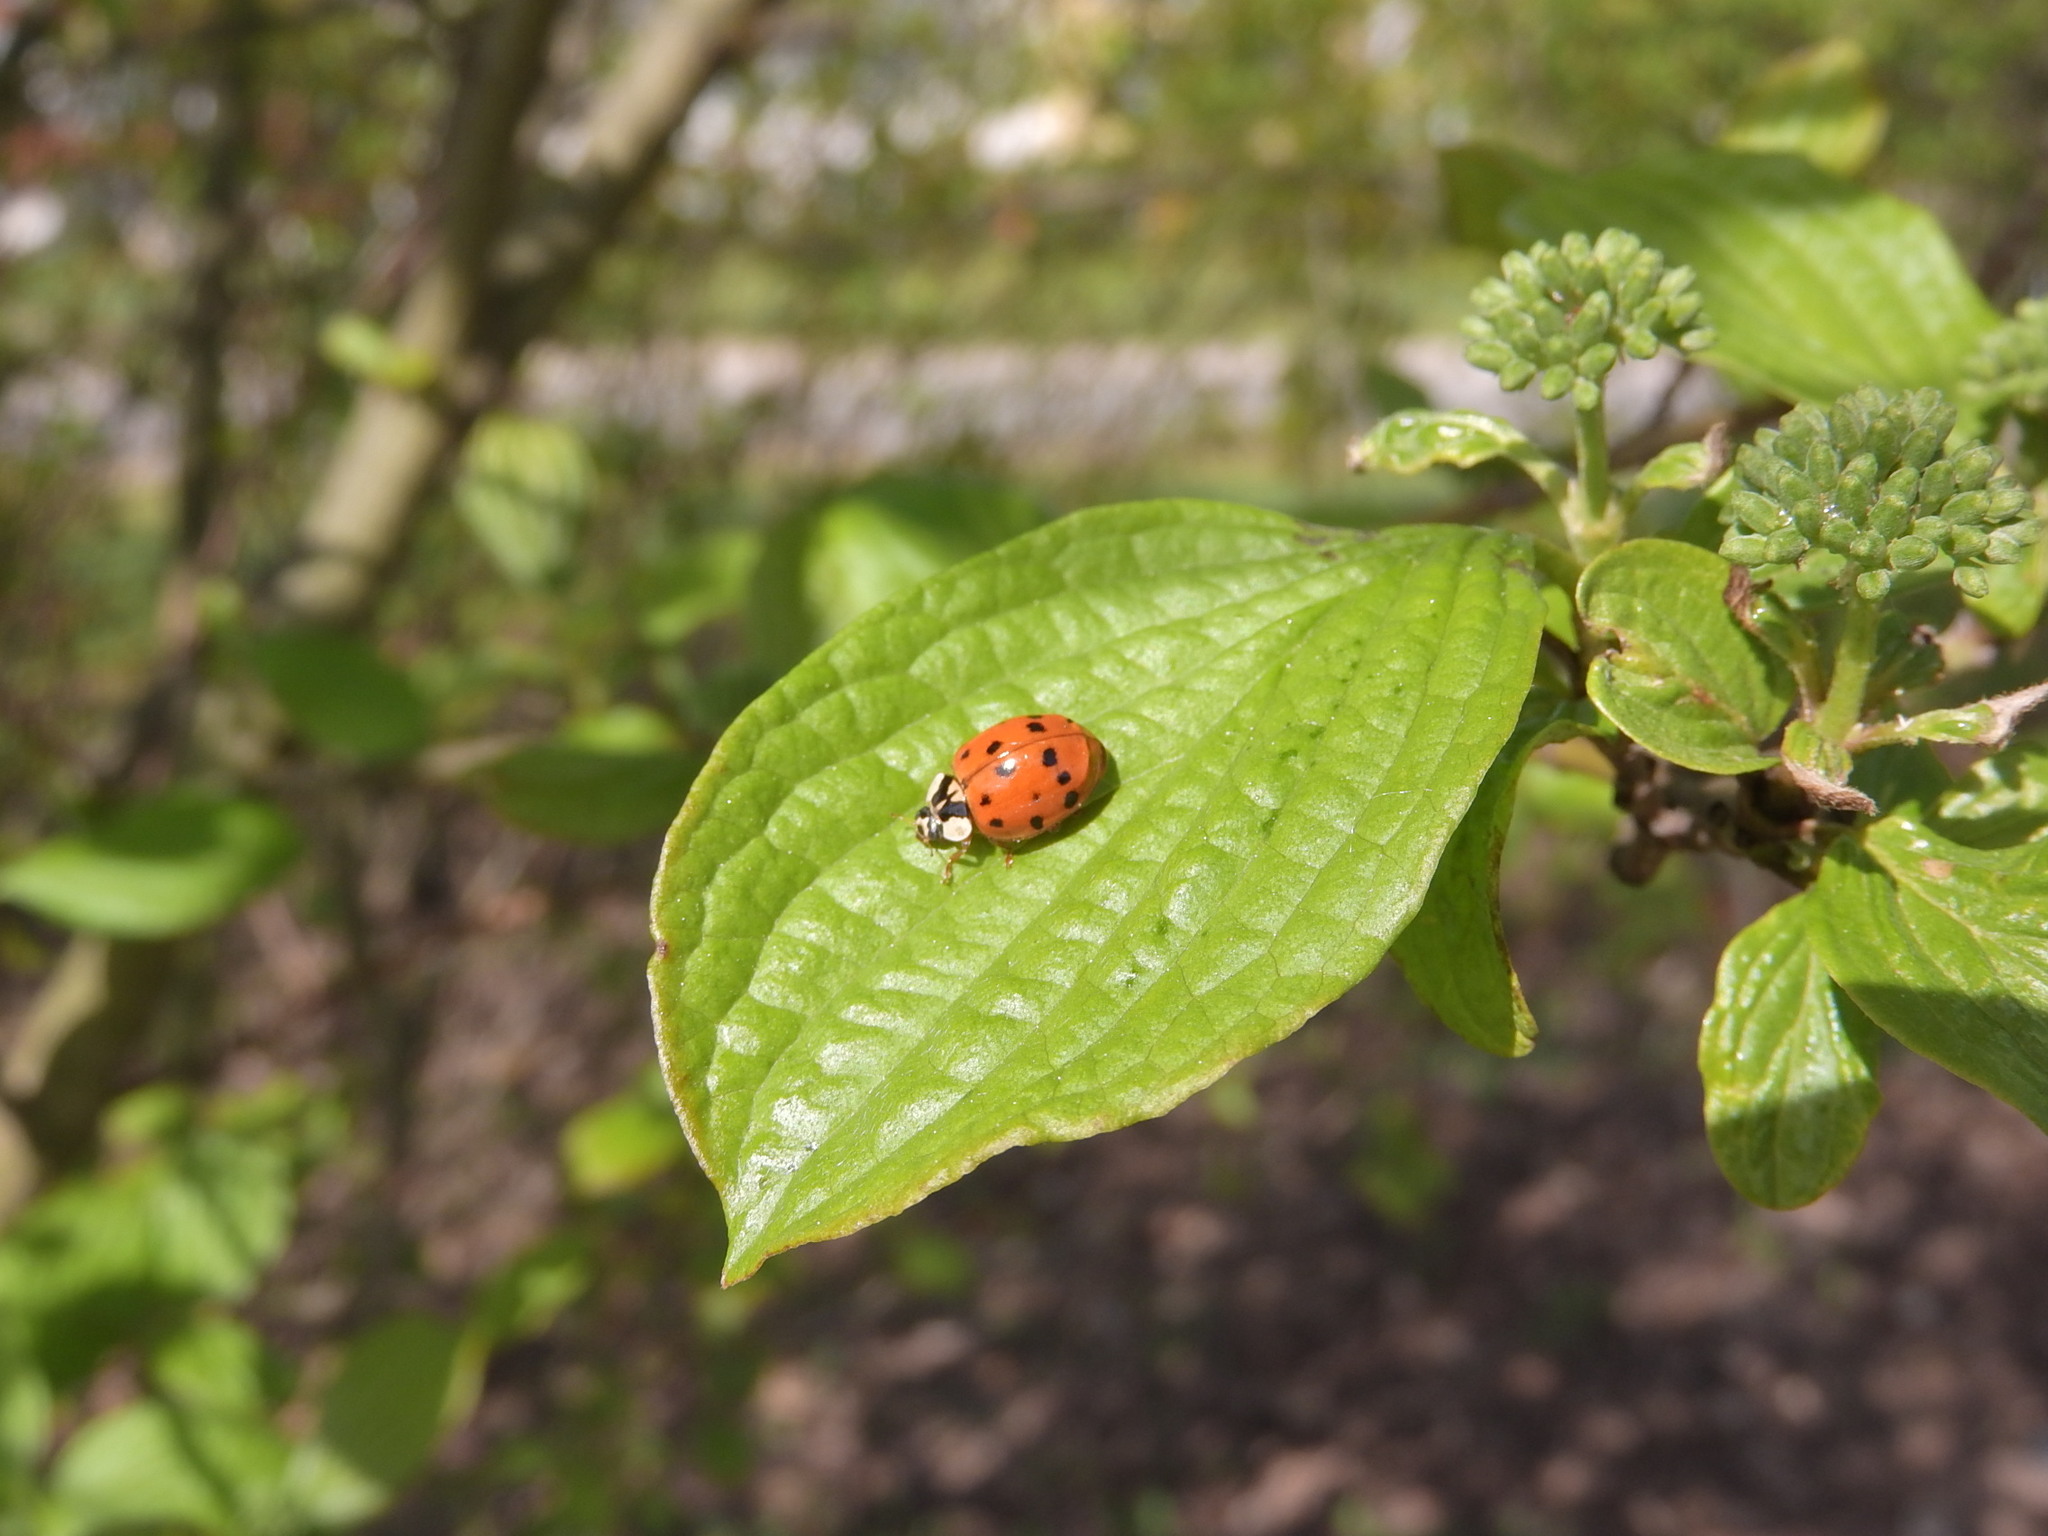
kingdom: Animalia
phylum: Arthropoda
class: Insecta
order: Coleoptera
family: Coccinellidae
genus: Harmonia
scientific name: Harmonia axyridis
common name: Harlequin ladybird
